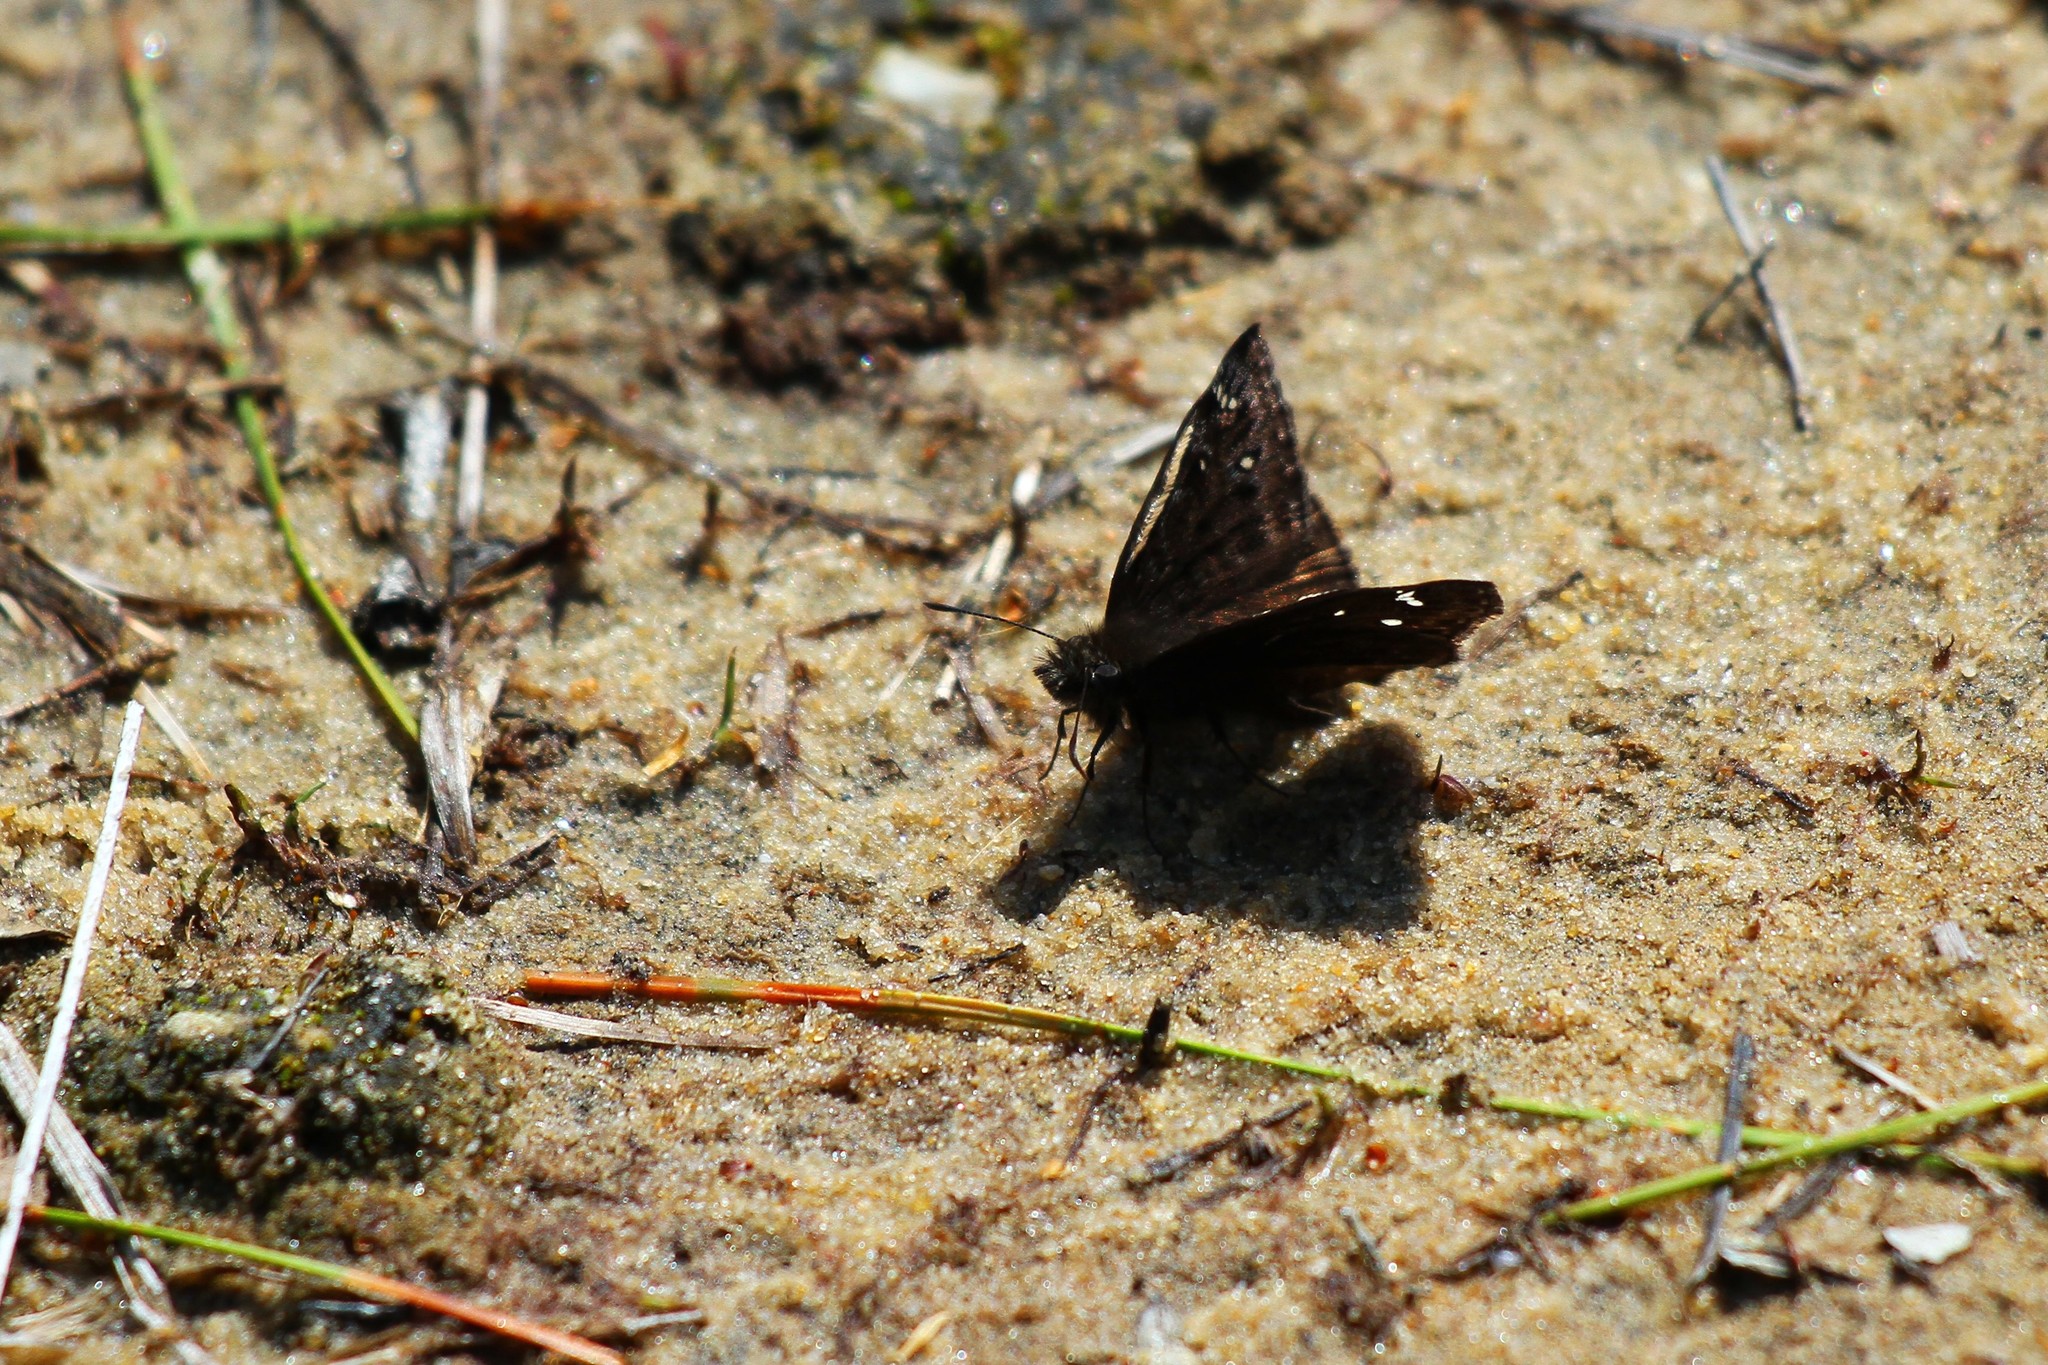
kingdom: Animalia
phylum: Arthropoda
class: Insecta
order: Lepidoptera
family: Hesperiidae
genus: Erynnis
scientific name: Erynnis horatius
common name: Horace's duskywing
